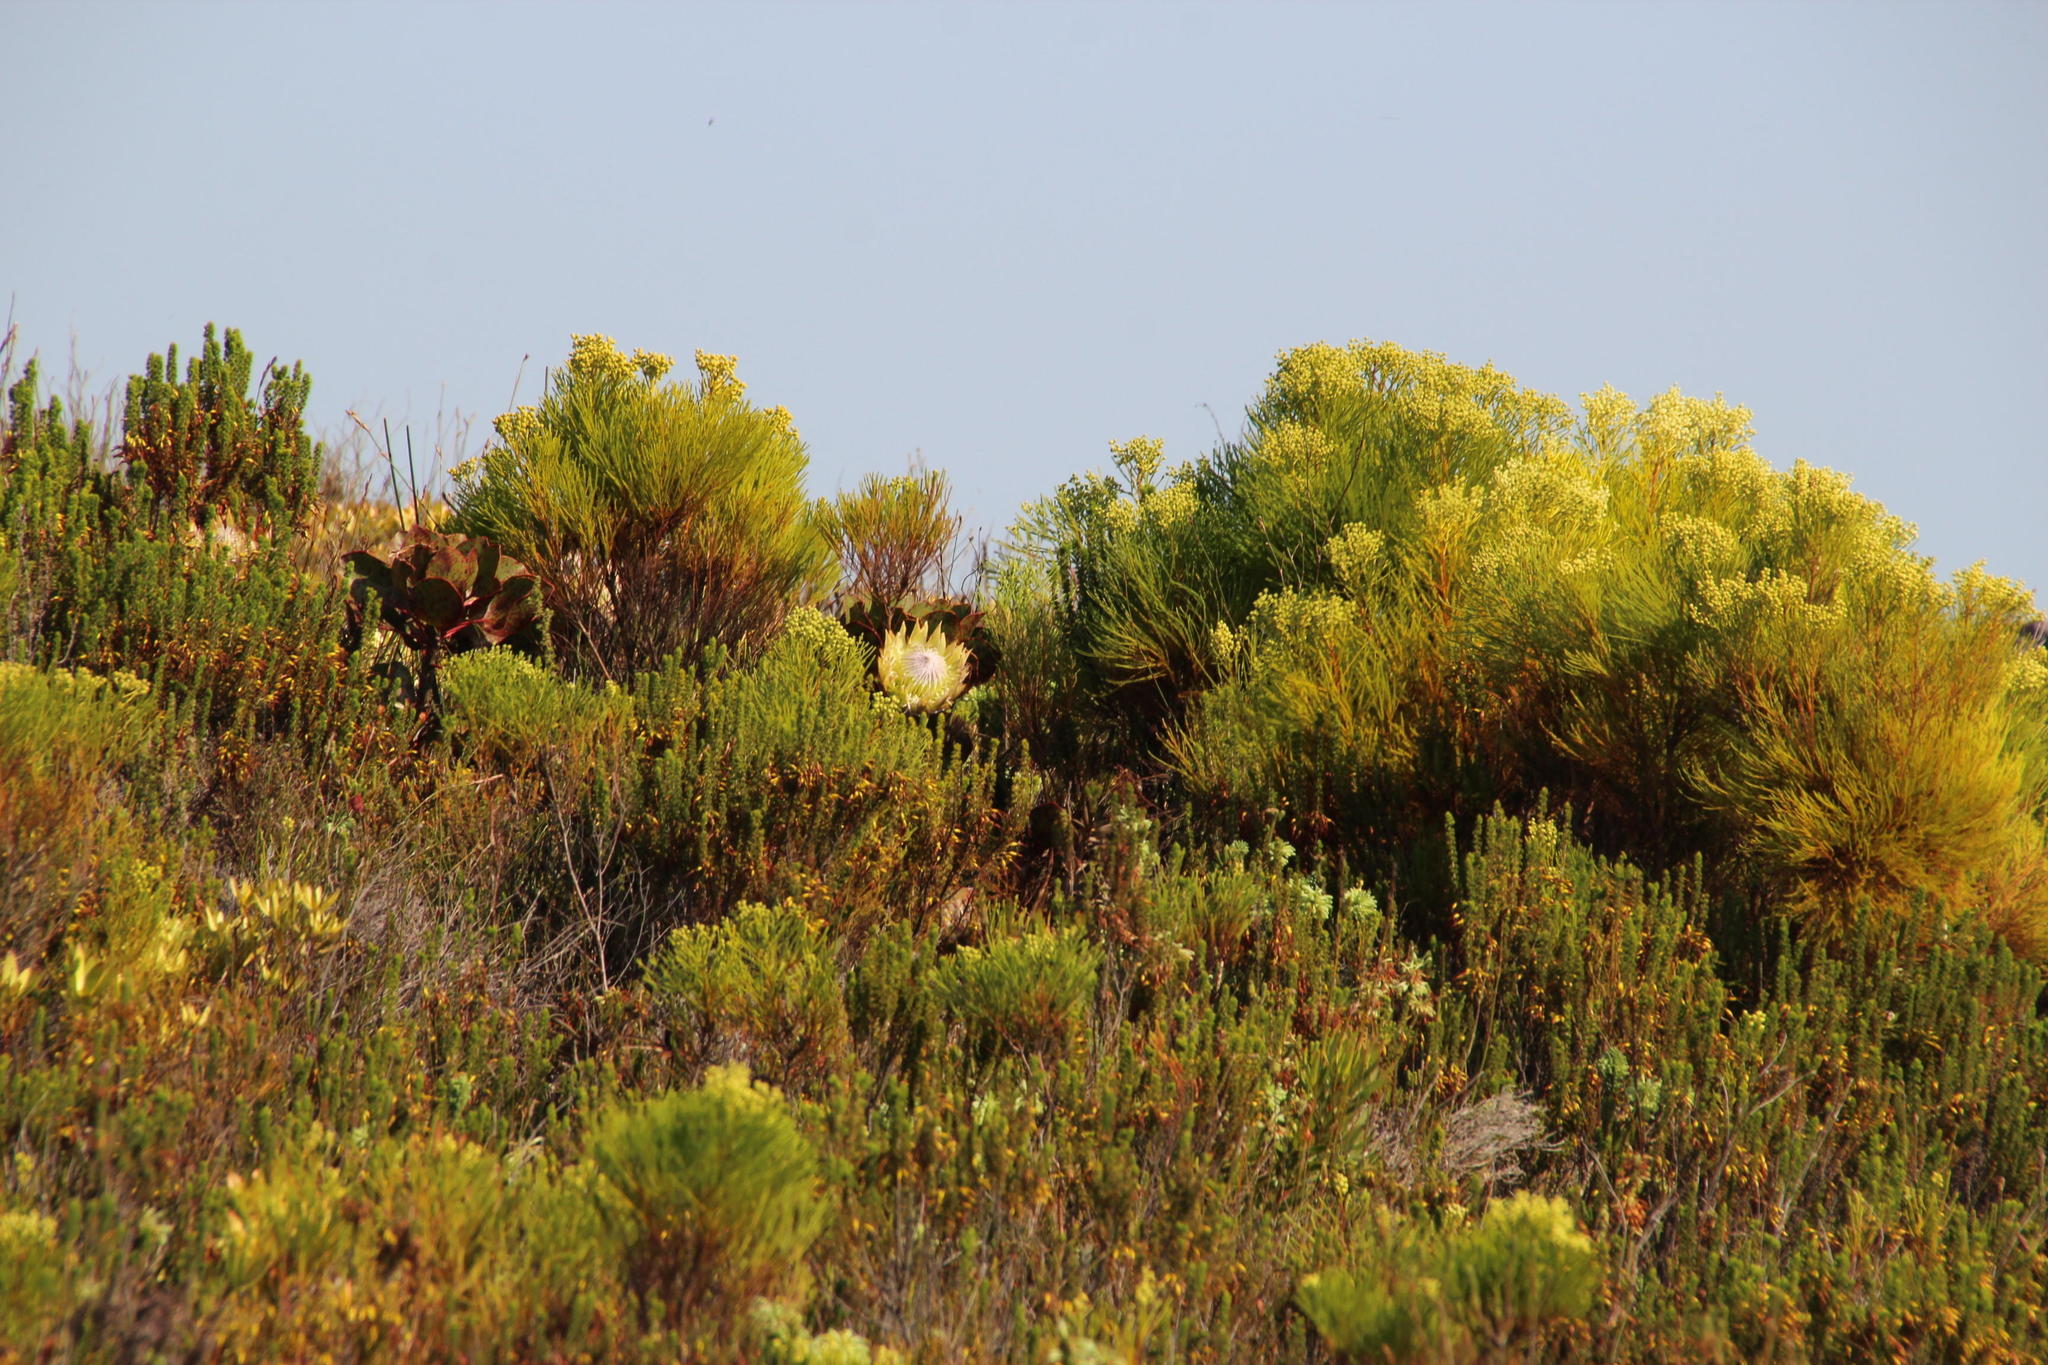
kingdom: Plantae
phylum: Tracheophyta
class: Magnoliopsida
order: Proteales
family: Proteaceae
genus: Protea
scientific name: Protea cynaroides
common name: King protea
